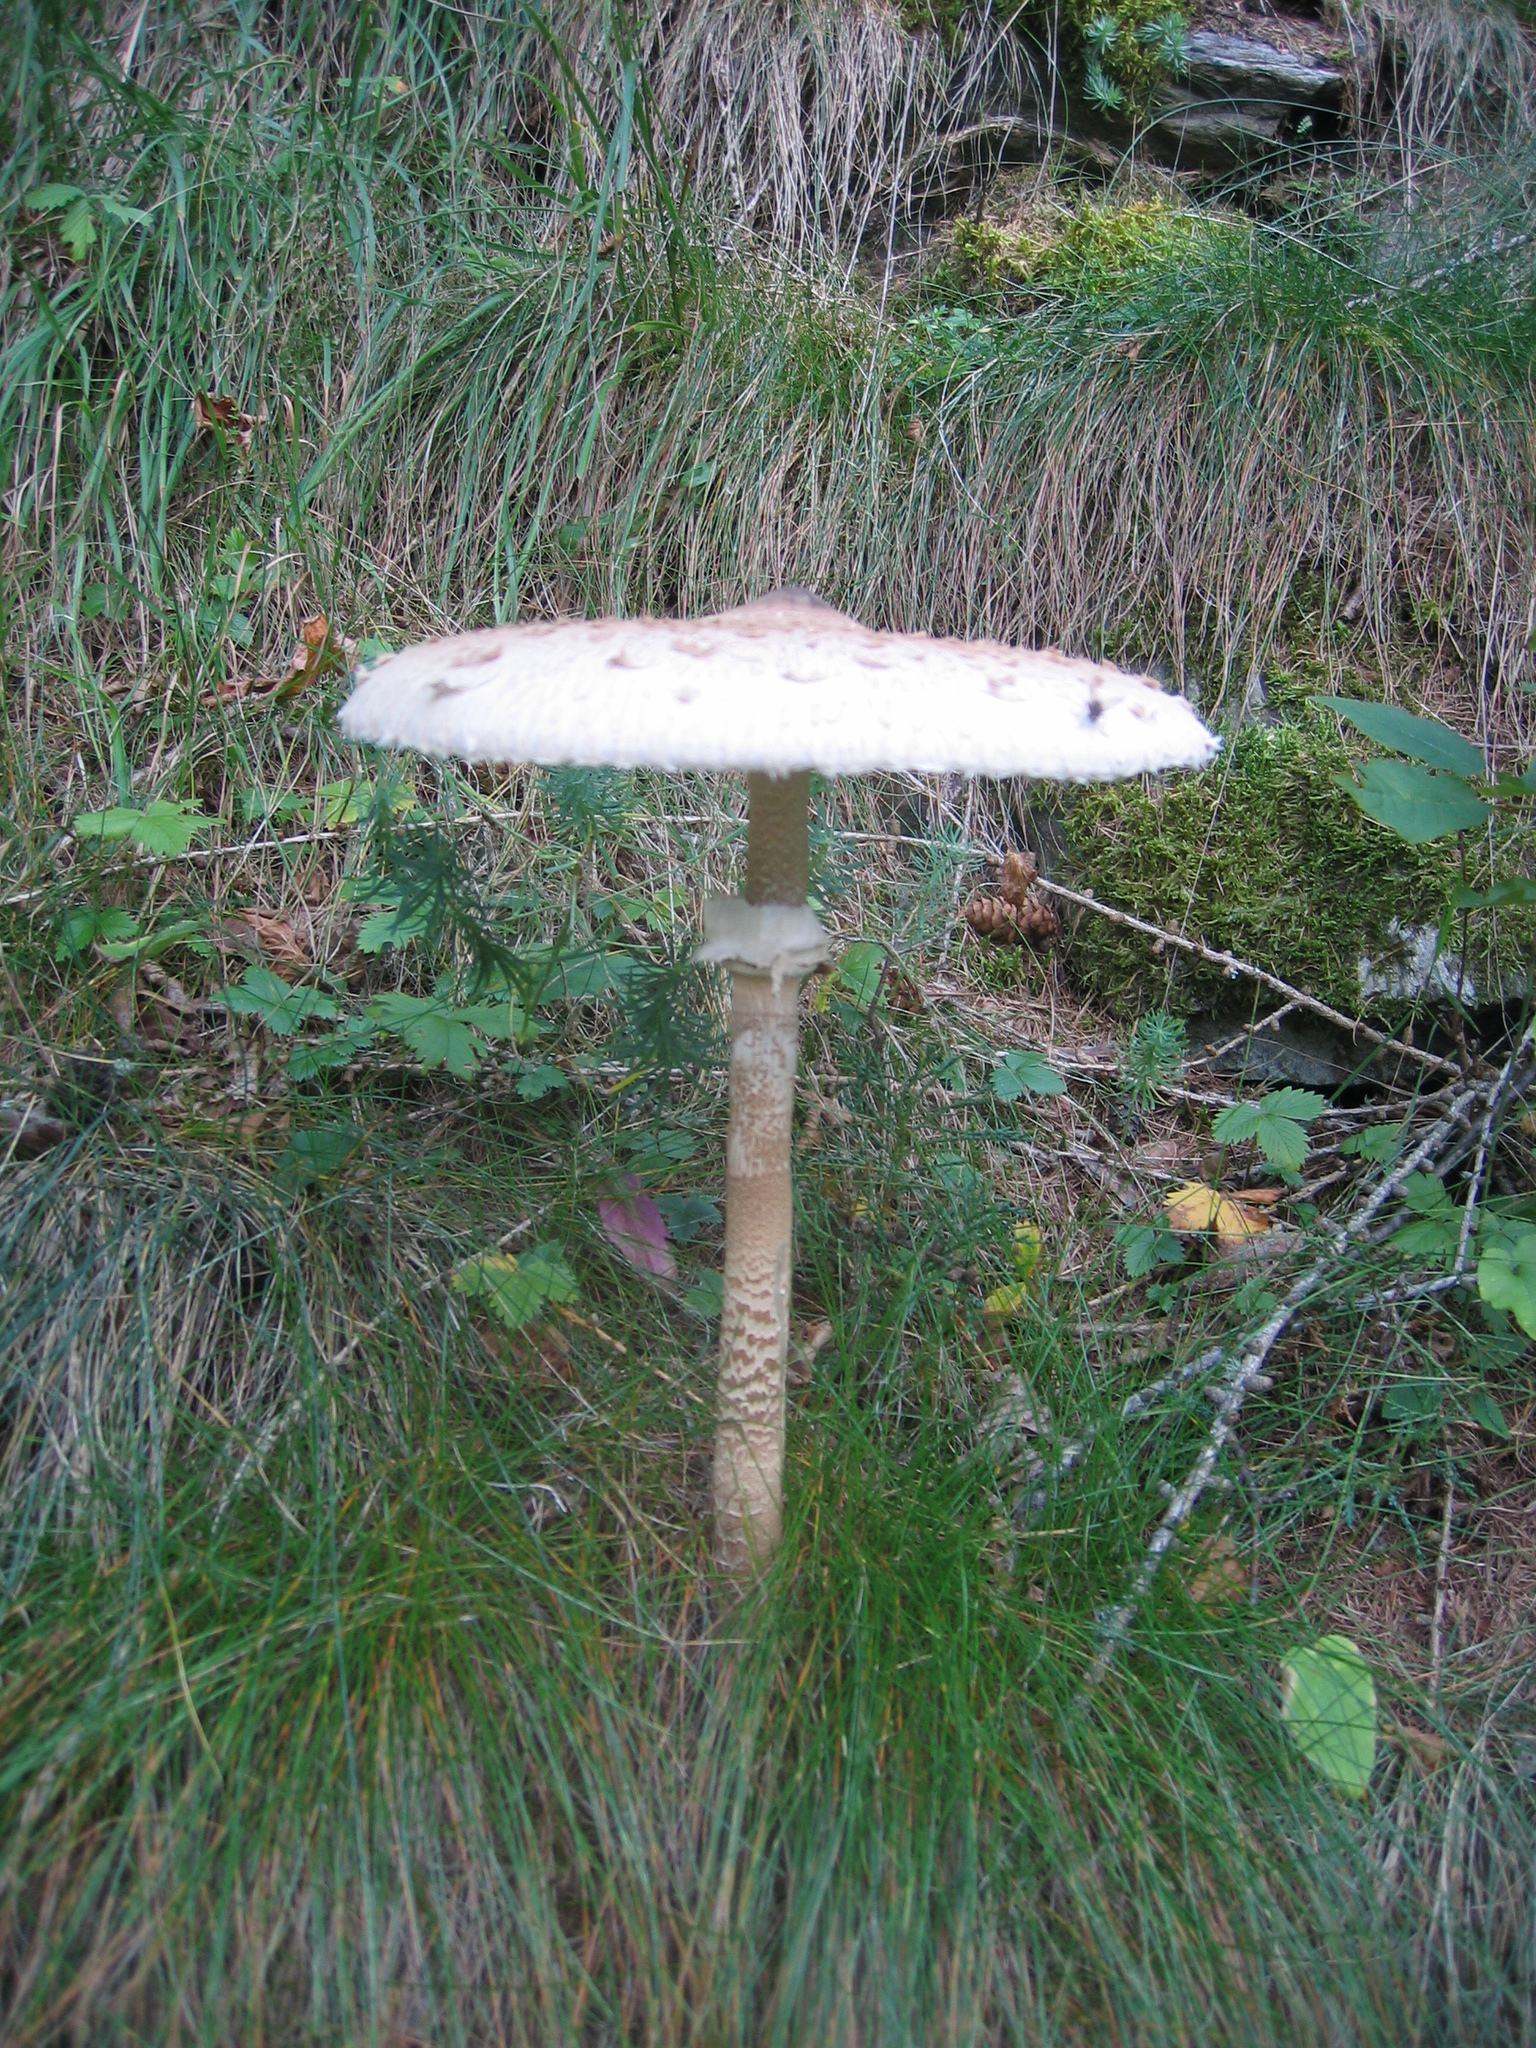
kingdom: Fungi
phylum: Basidiomycota
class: Agaricomycetes
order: Agaricales
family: Agaricaceae
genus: Macrolepiota
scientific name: Macrolepiota procera
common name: Parasol
